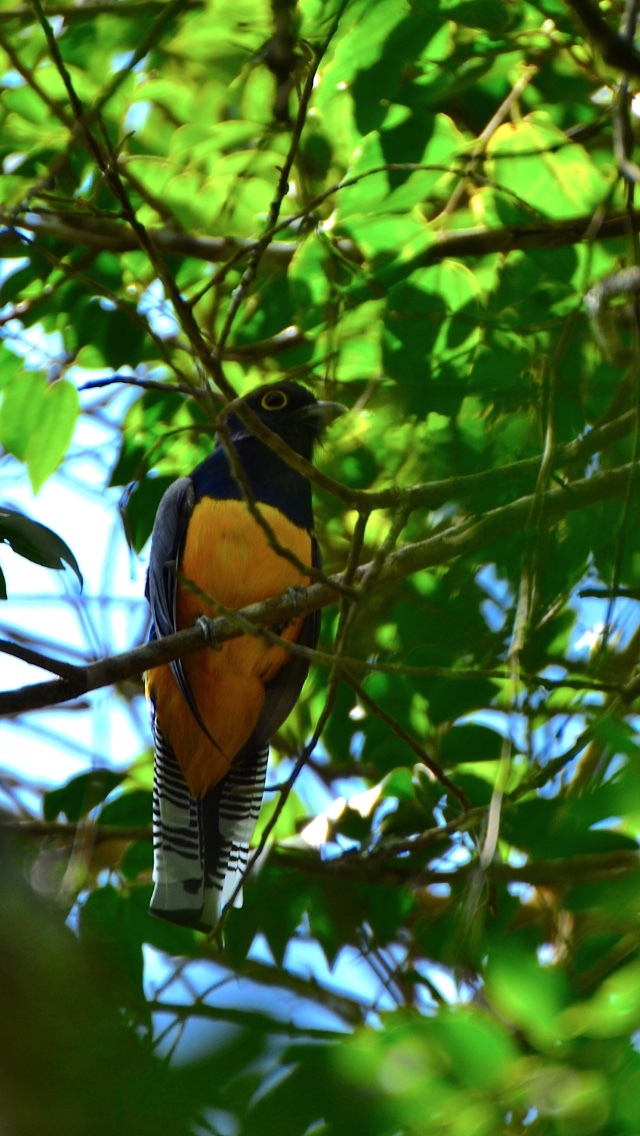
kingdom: Animalia
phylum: Chordata
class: Aves
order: Trogoniformes
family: Trogonidae
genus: Trogon
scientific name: Trogon caligatus
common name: Gartered trogon
